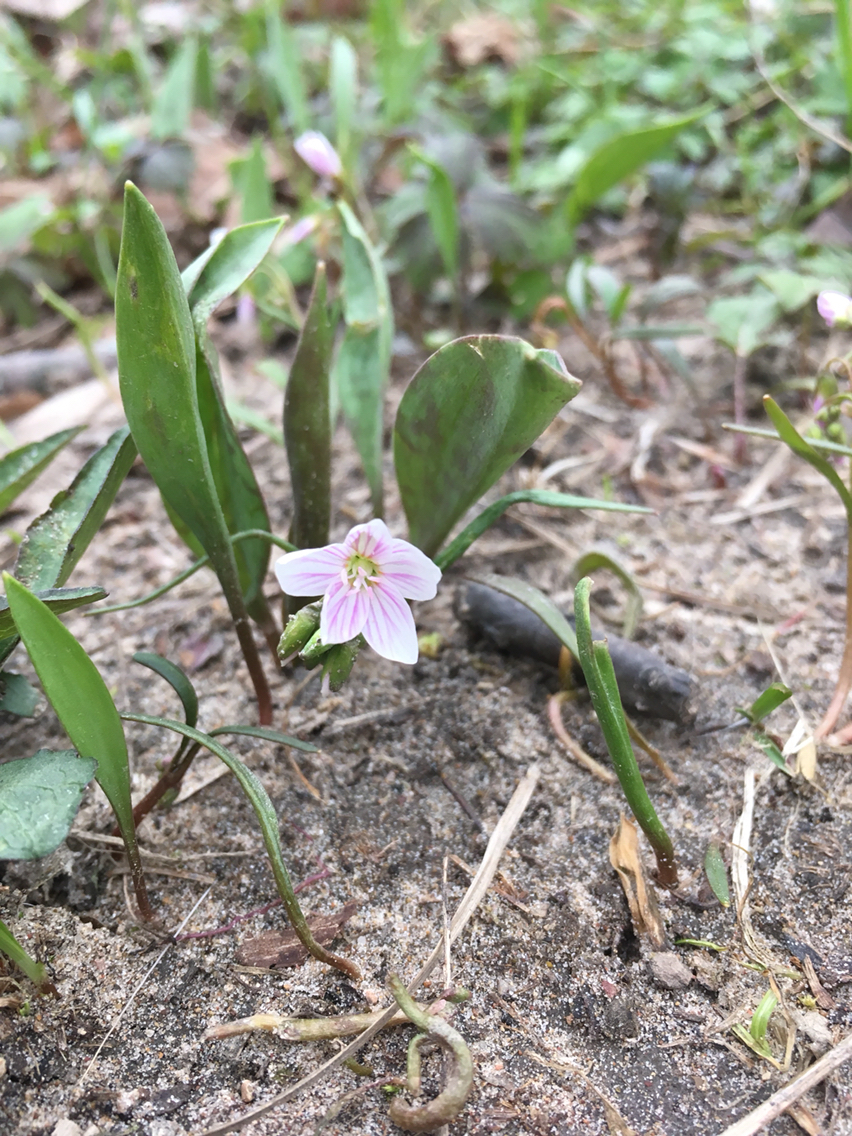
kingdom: Plantae
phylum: Tracheophyta
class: Magnoliopsida
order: Caryophyllales
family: Montiaceae
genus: Claytonia
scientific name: Claytonia virginica
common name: Virginia springbeauty
